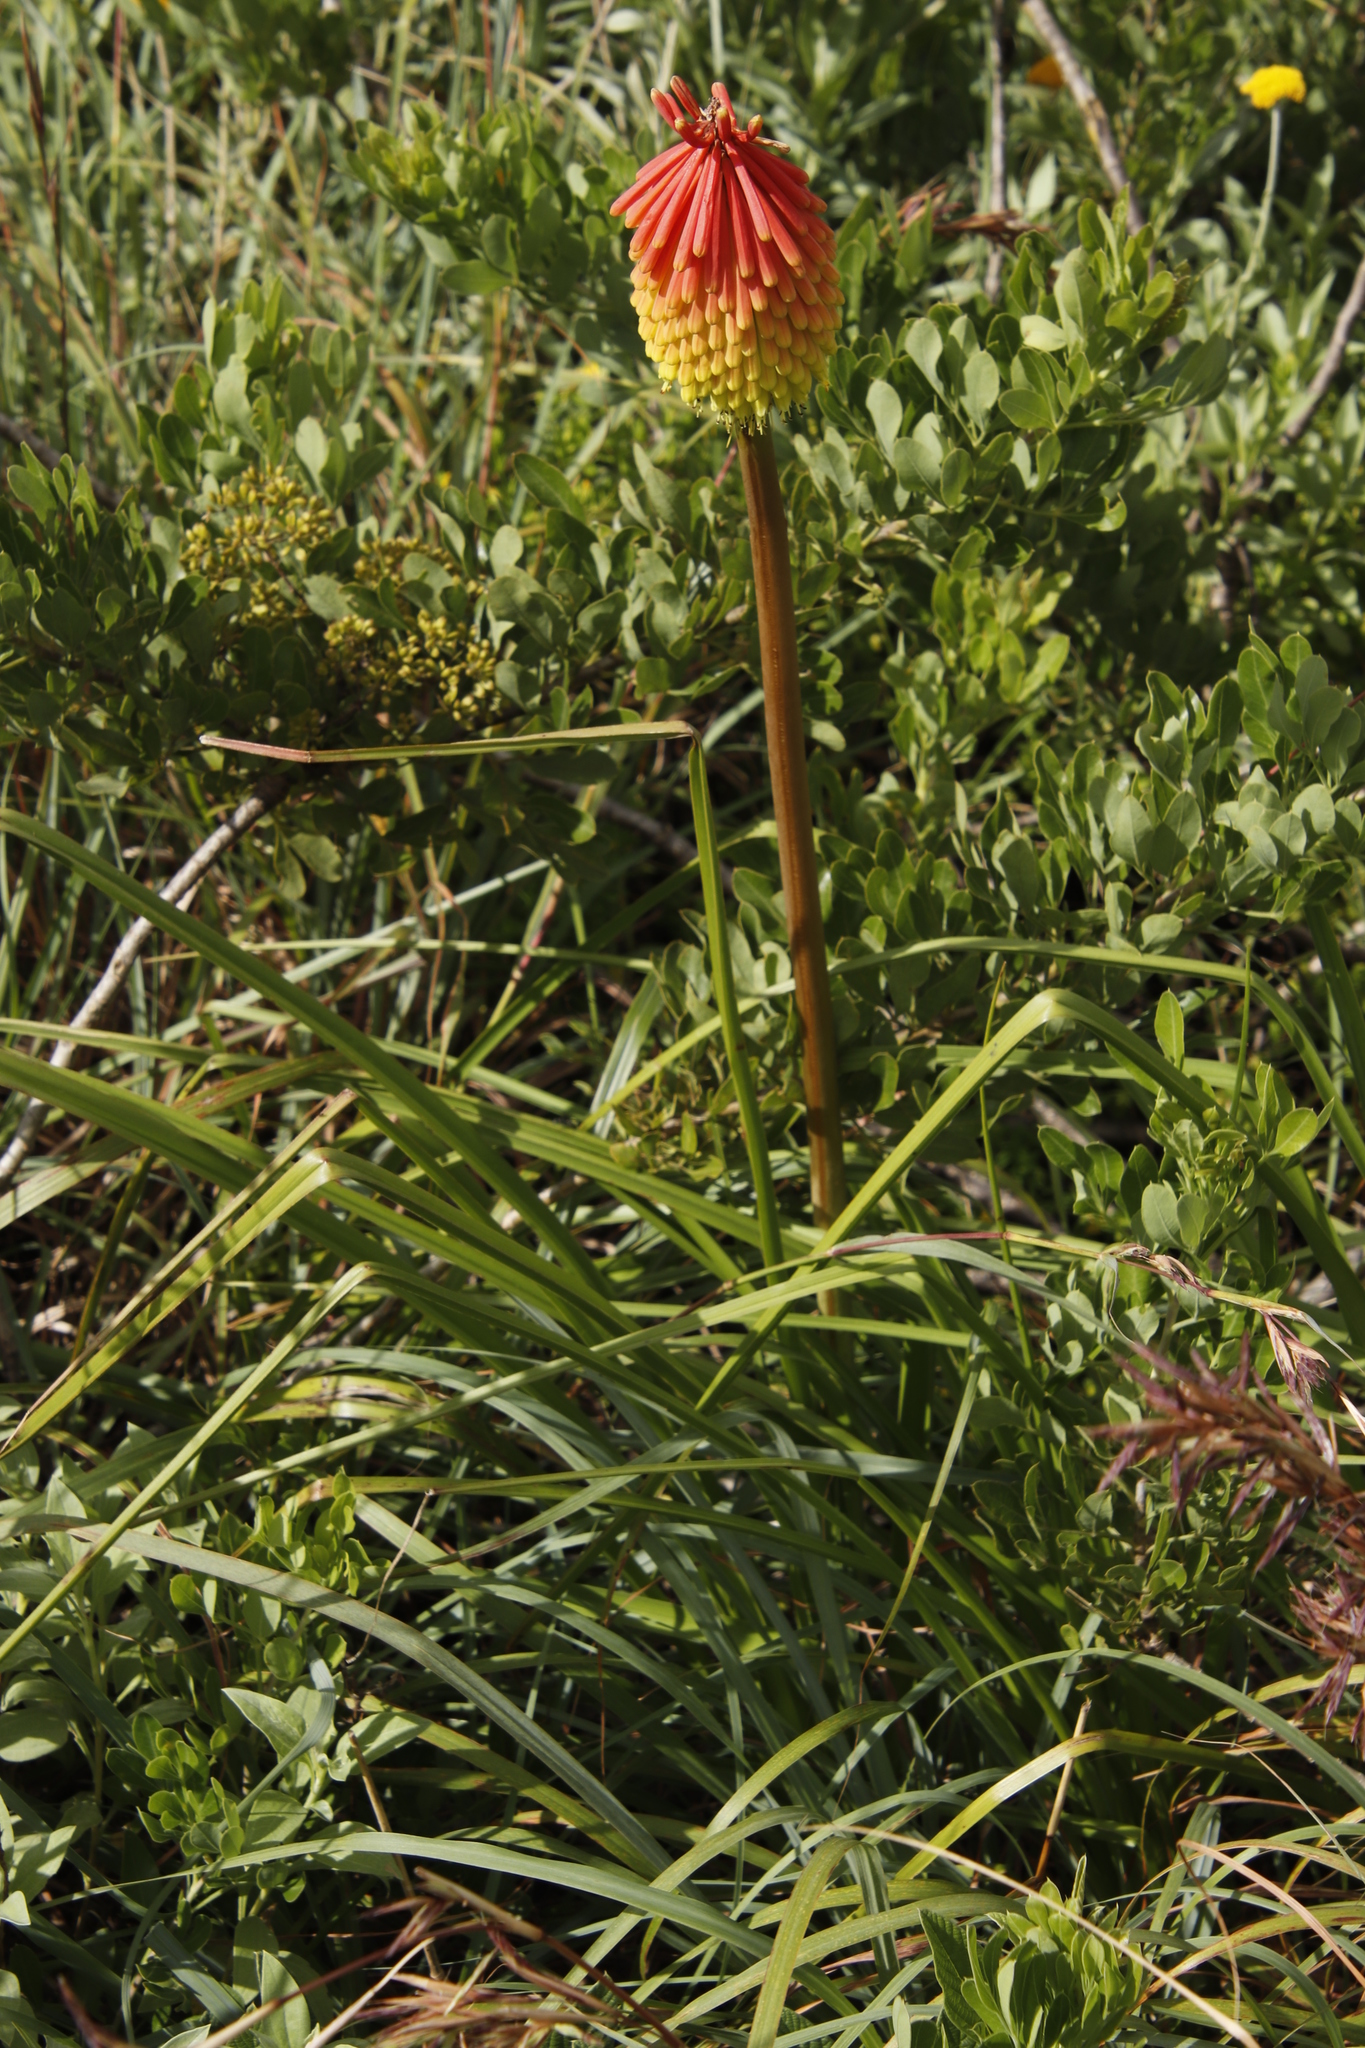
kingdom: Plantae
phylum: Tracheophyta
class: Liliopsida
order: Asparagales
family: Asphodelaceae
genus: Kniphofia
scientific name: Kniphofia linearifolia
